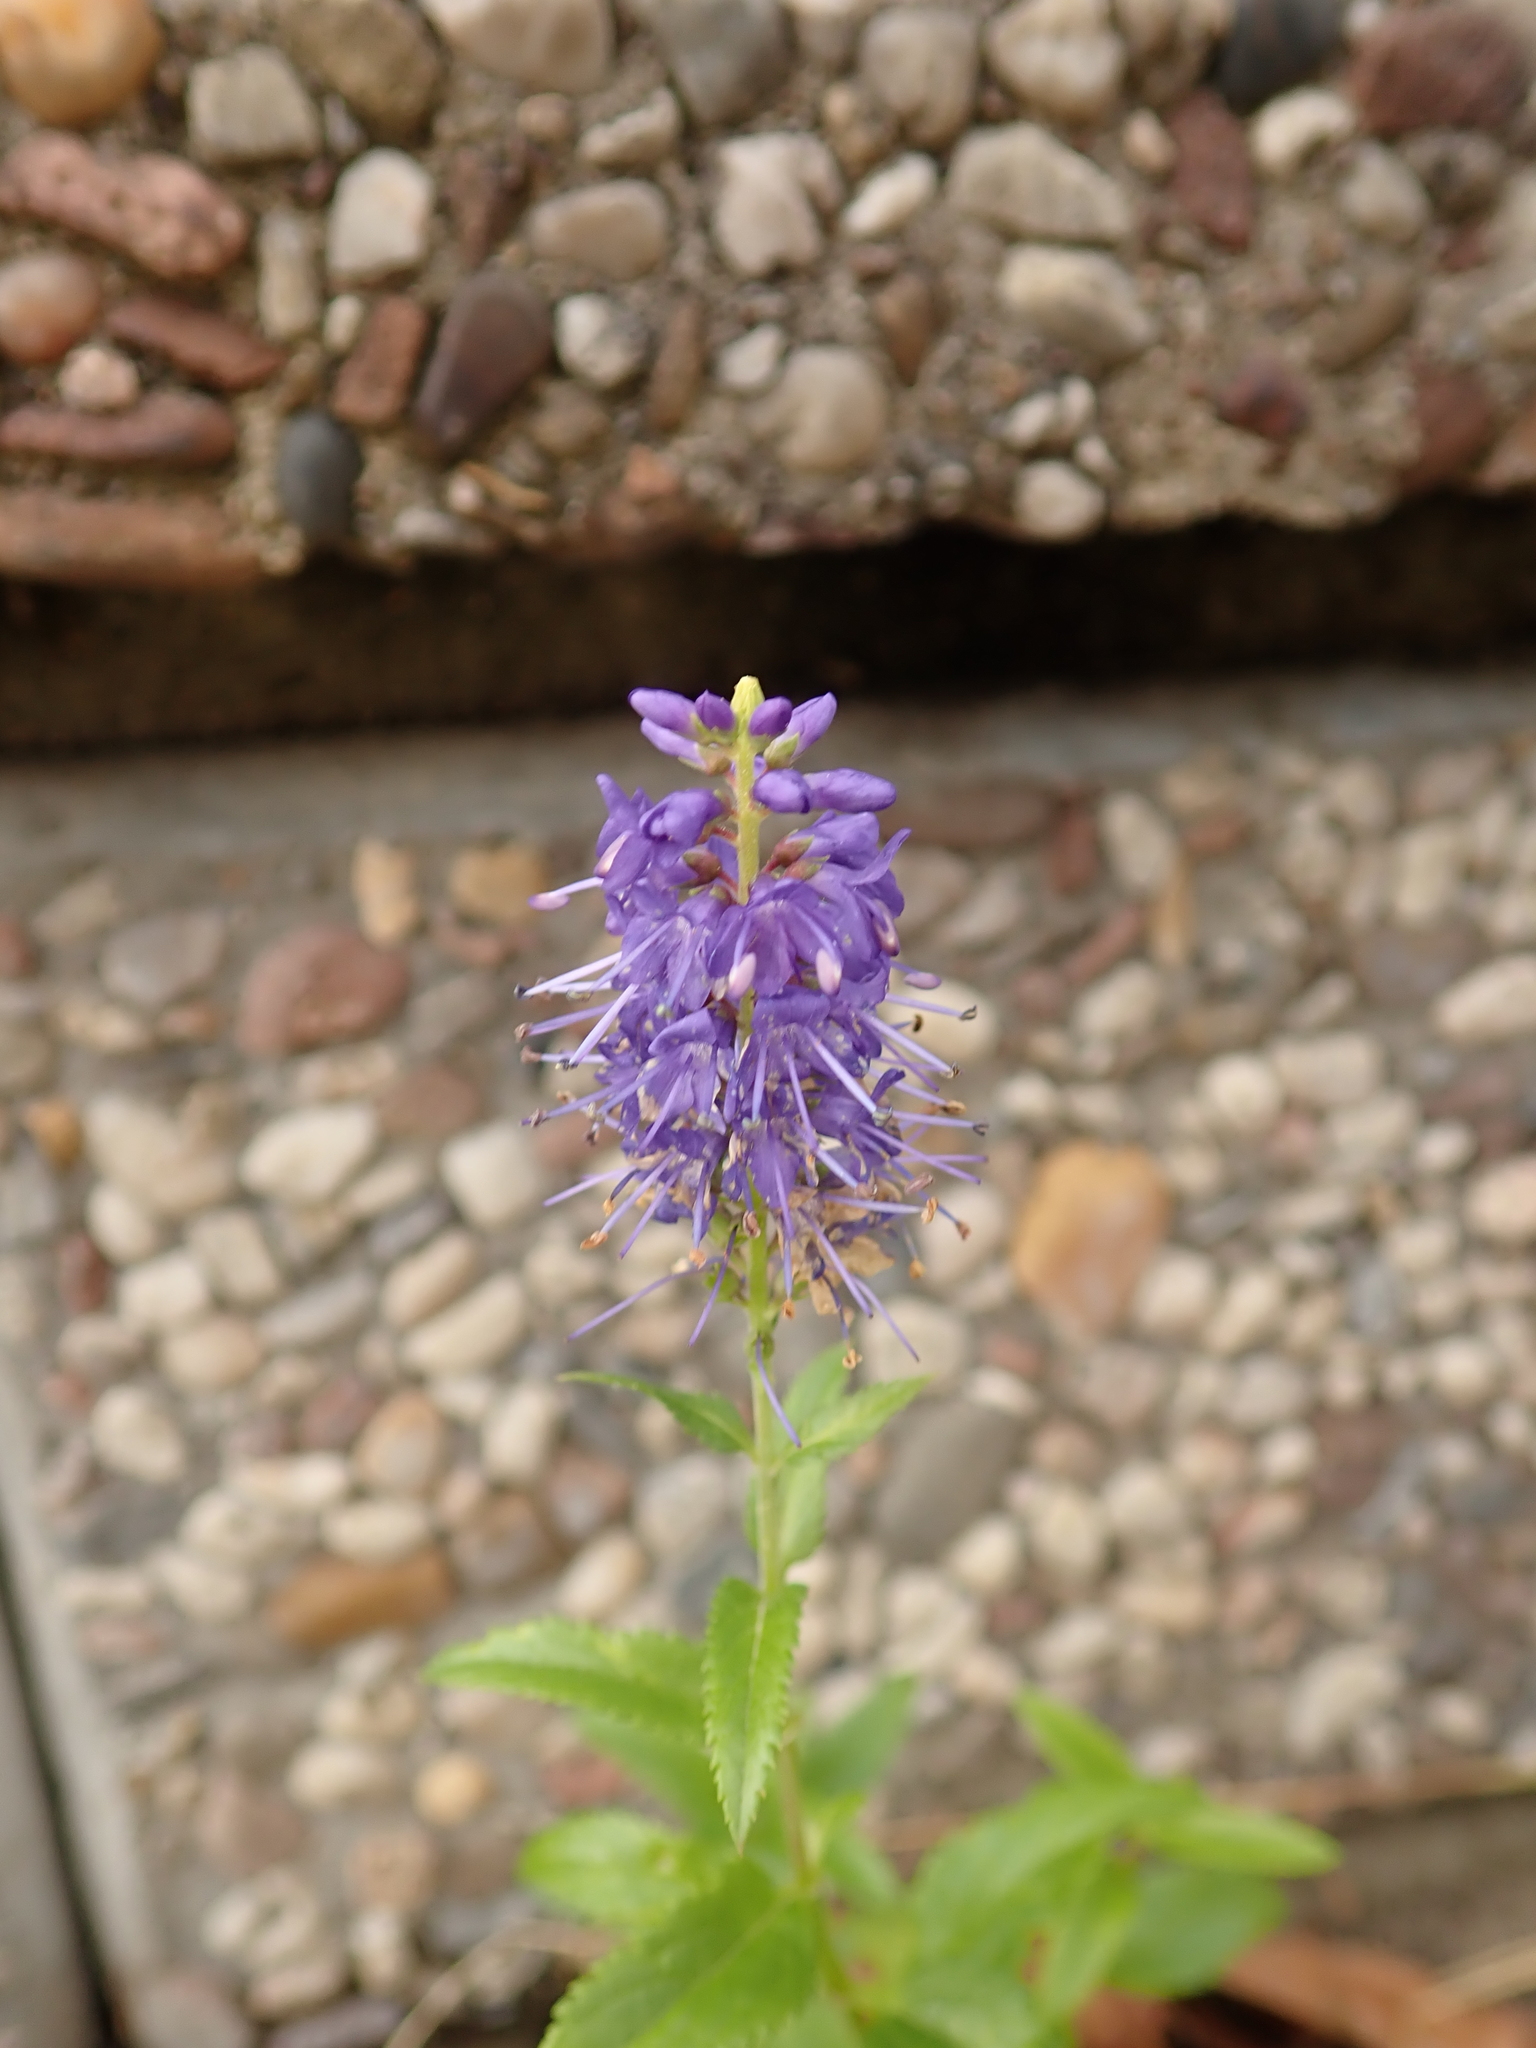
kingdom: Plantae
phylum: Tracheophyta
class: Magnoliopsida
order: Lamiales
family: Plantaginaceae
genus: Veronica
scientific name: Veronica longifolia
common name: Garden speedwell
